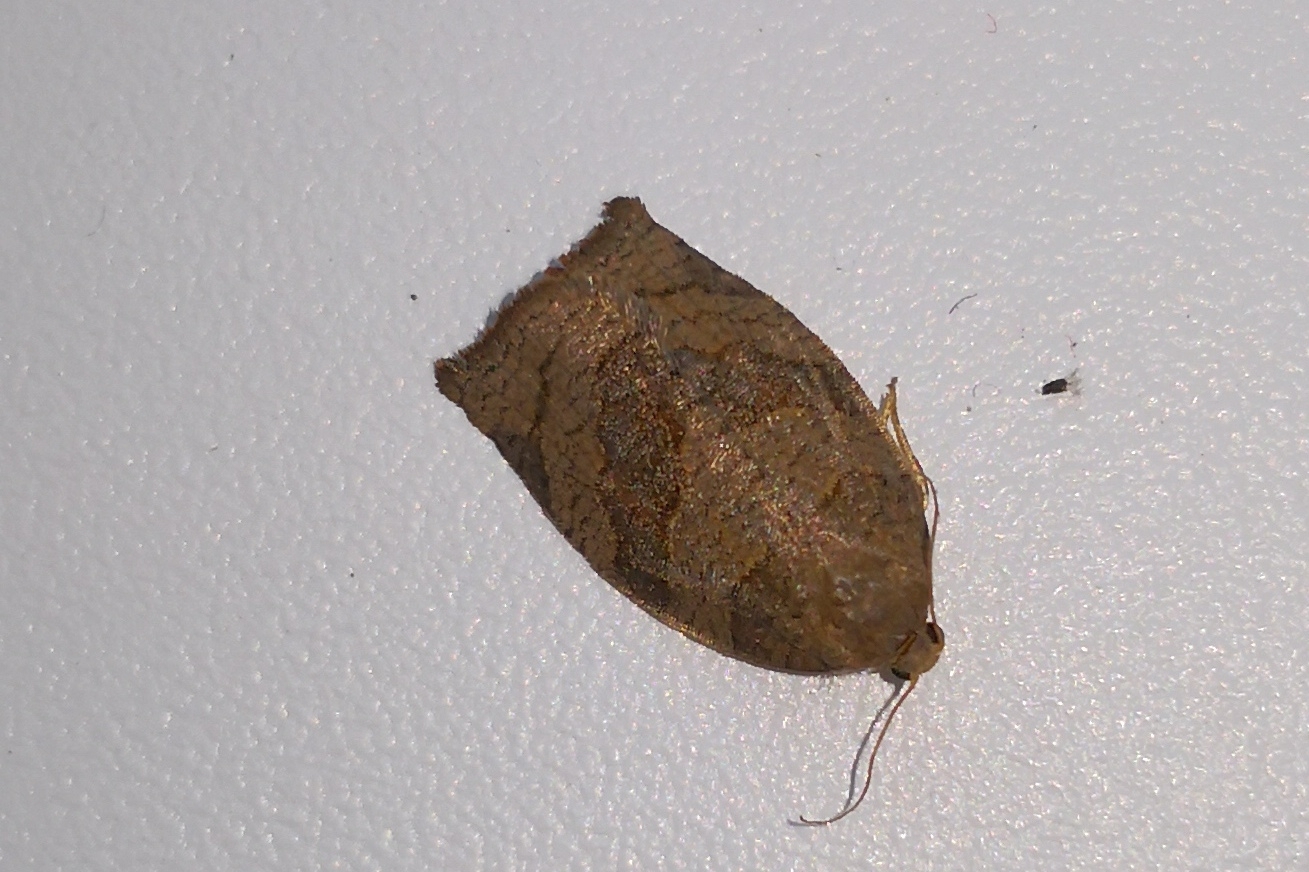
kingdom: Animalia
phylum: Arthropoda
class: Insecta
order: Lepidoptera
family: Tortricidae
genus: Pandemis
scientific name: Pandemis heparana
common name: Dark fruit-tree tortrix
